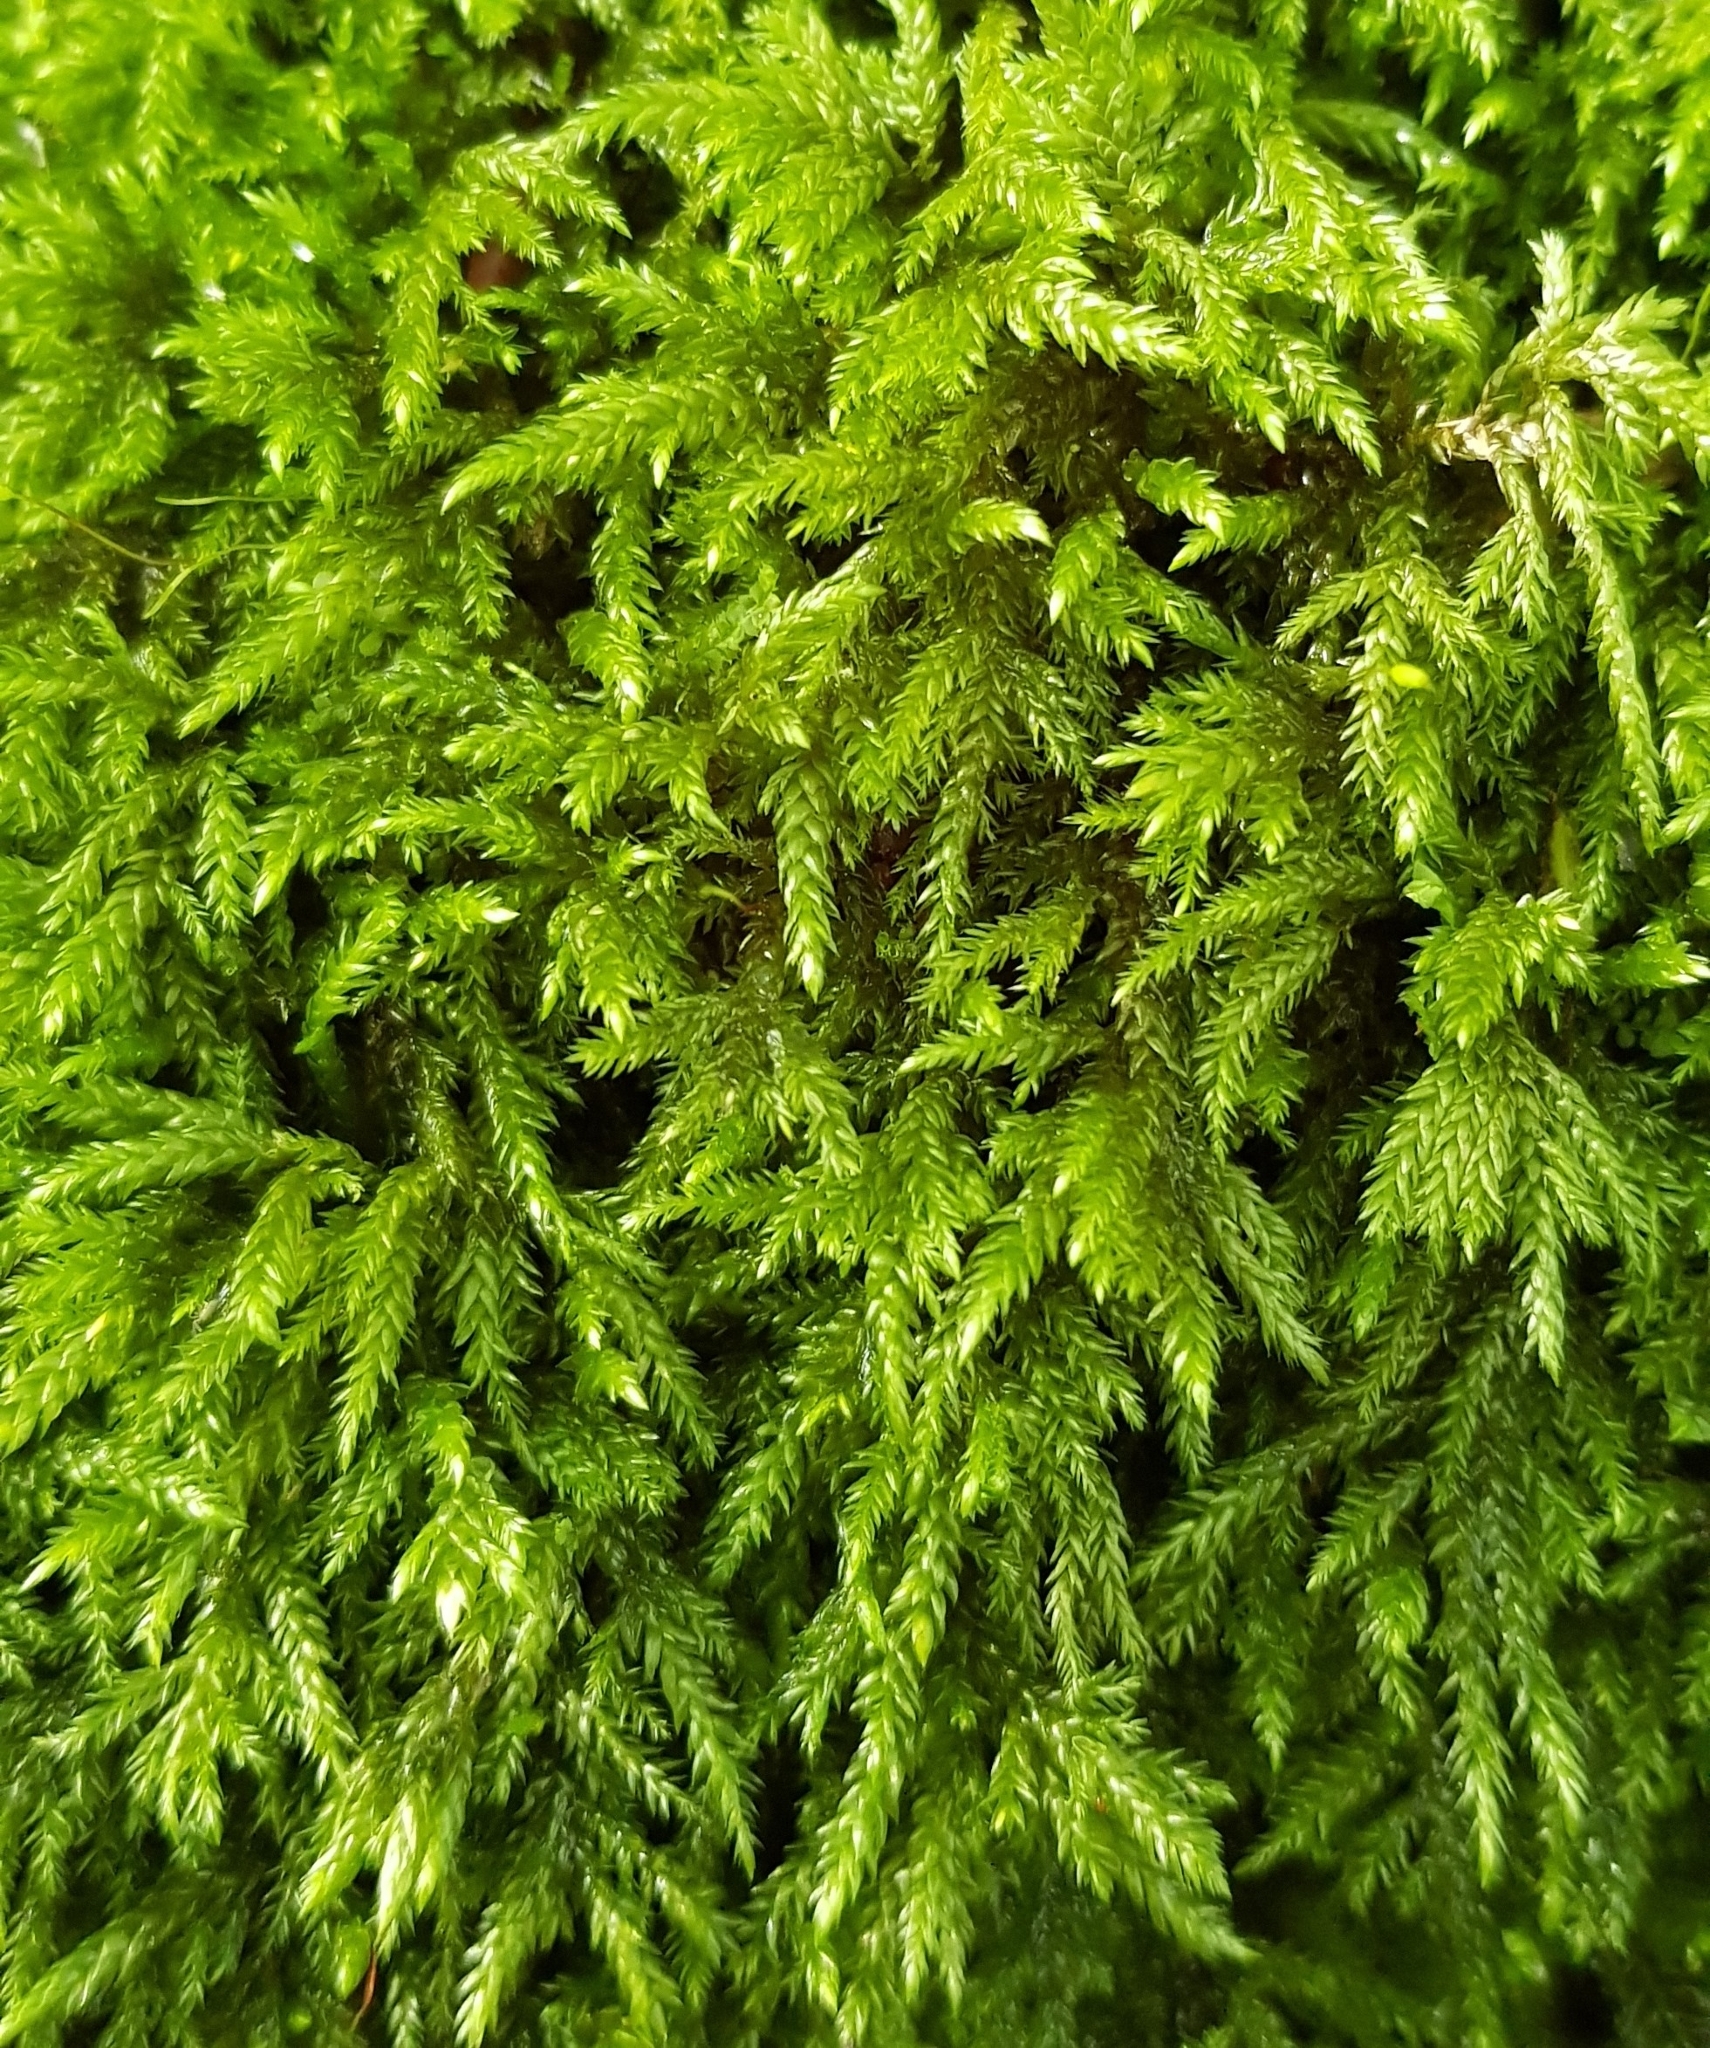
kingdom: Plantae
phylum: Bryophyta
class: Bryopsida
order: Hypnales
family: Lembophyllaceae
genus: Isothecium
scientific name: Isothecium alopecuroides
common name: Larger mouse-tail moss
